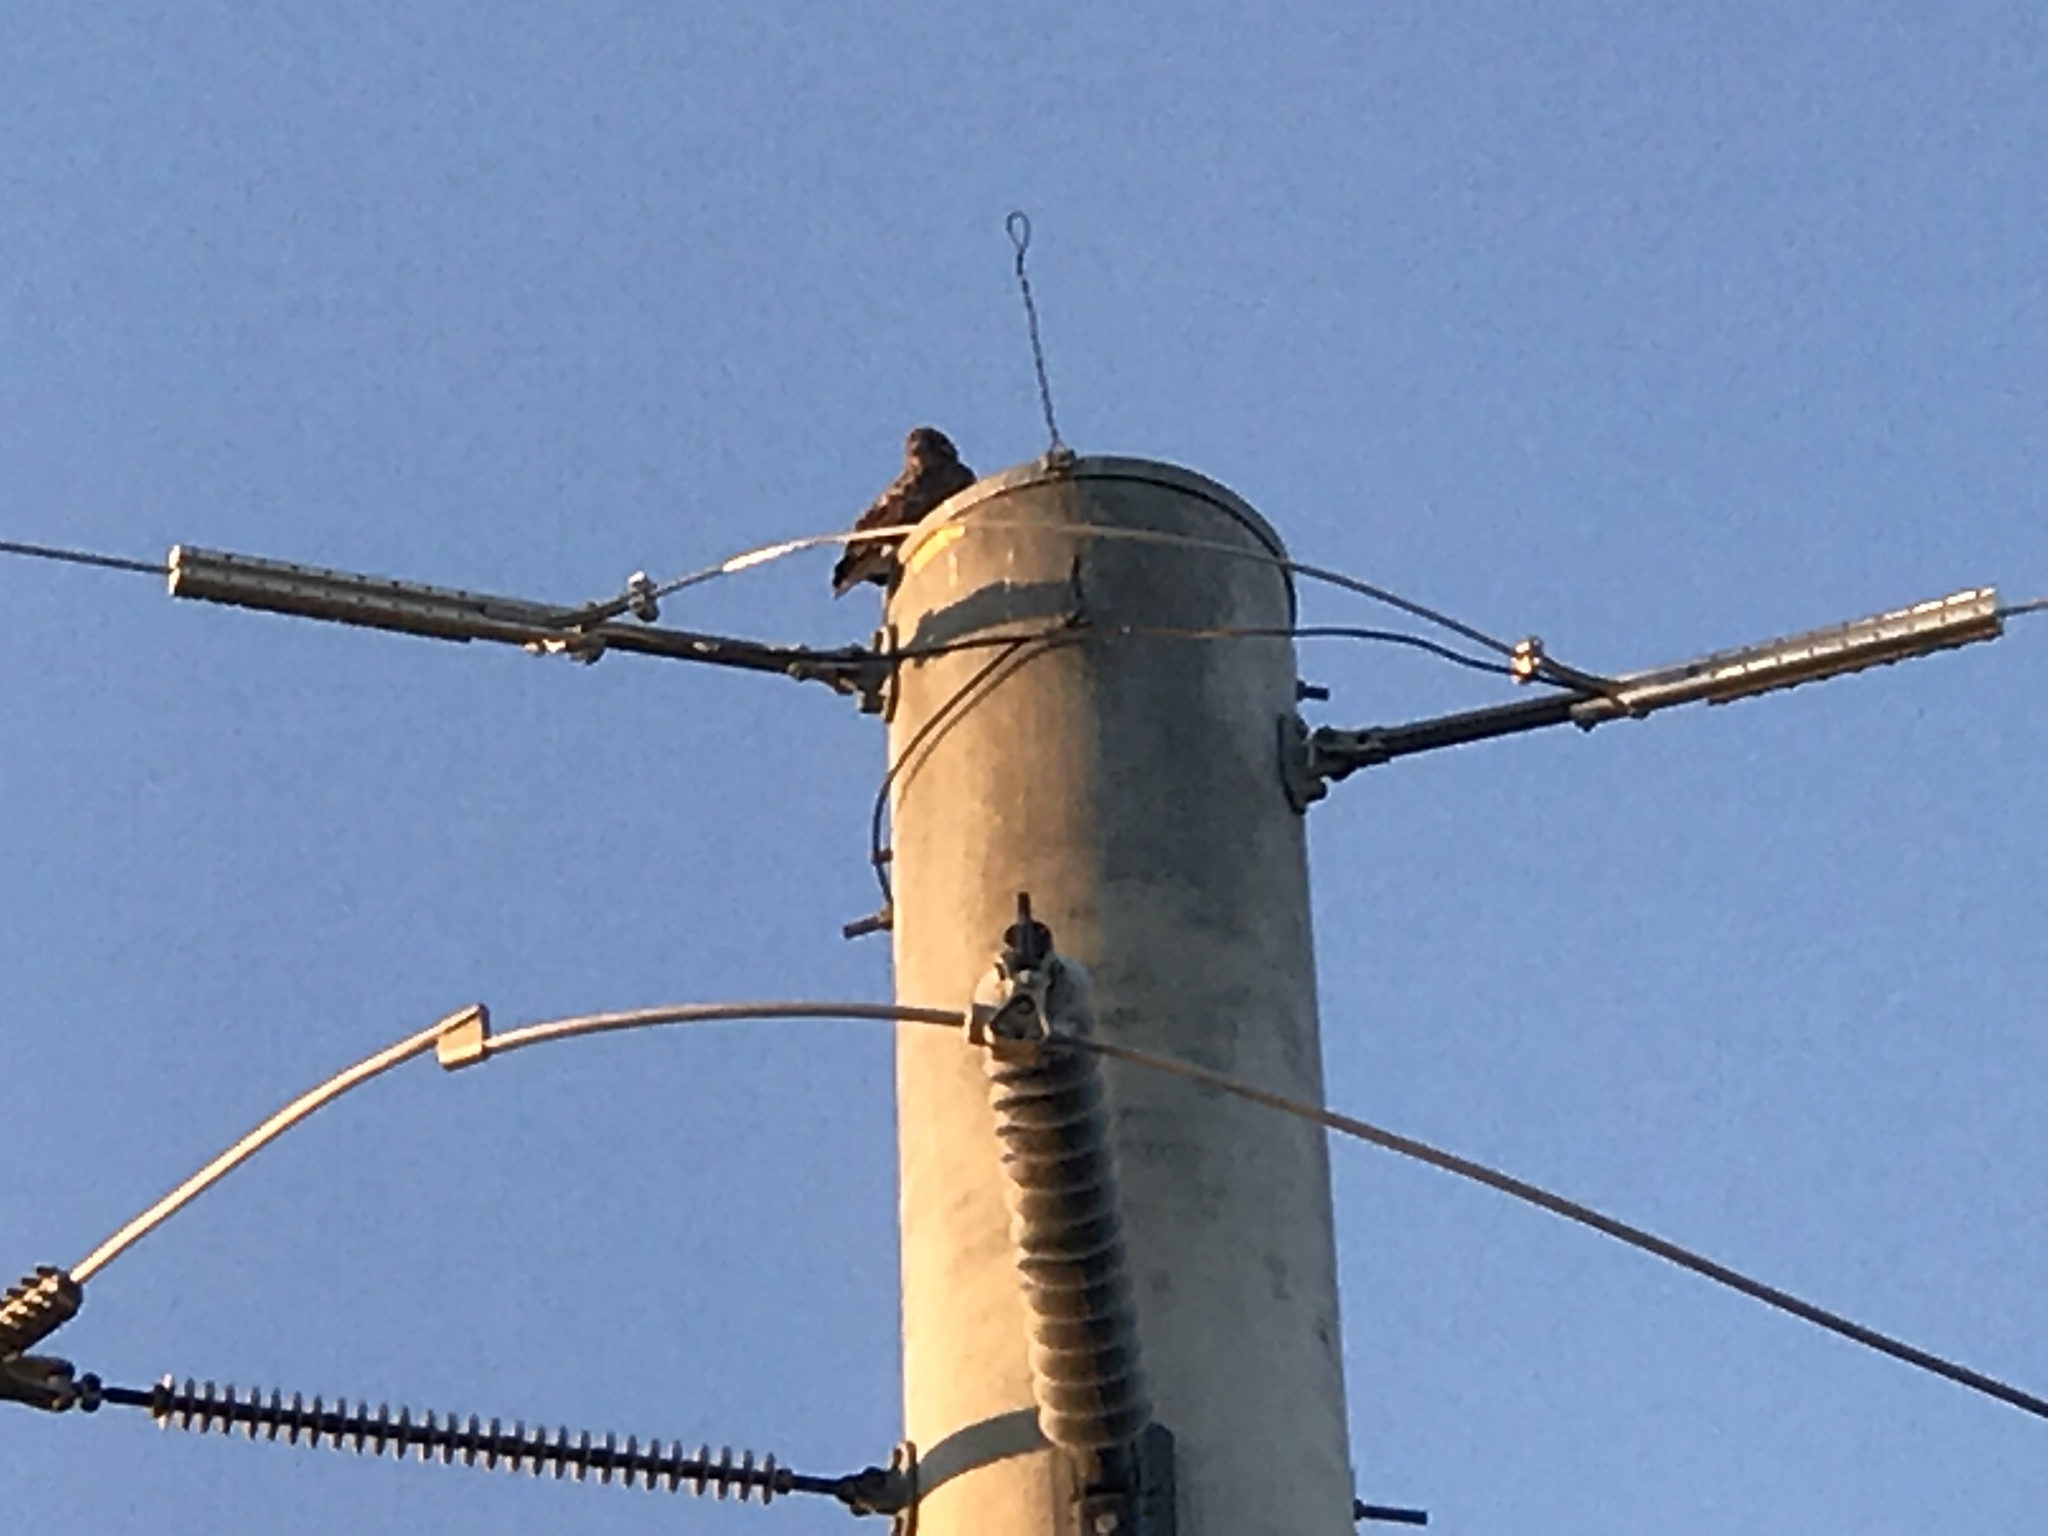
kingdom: Animalia
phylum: Chordata
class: Aves
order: Accipitriformes
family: Accipitridae
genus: Buteo
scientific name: Buteo jamaicensis
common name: Red-tailed hawk
